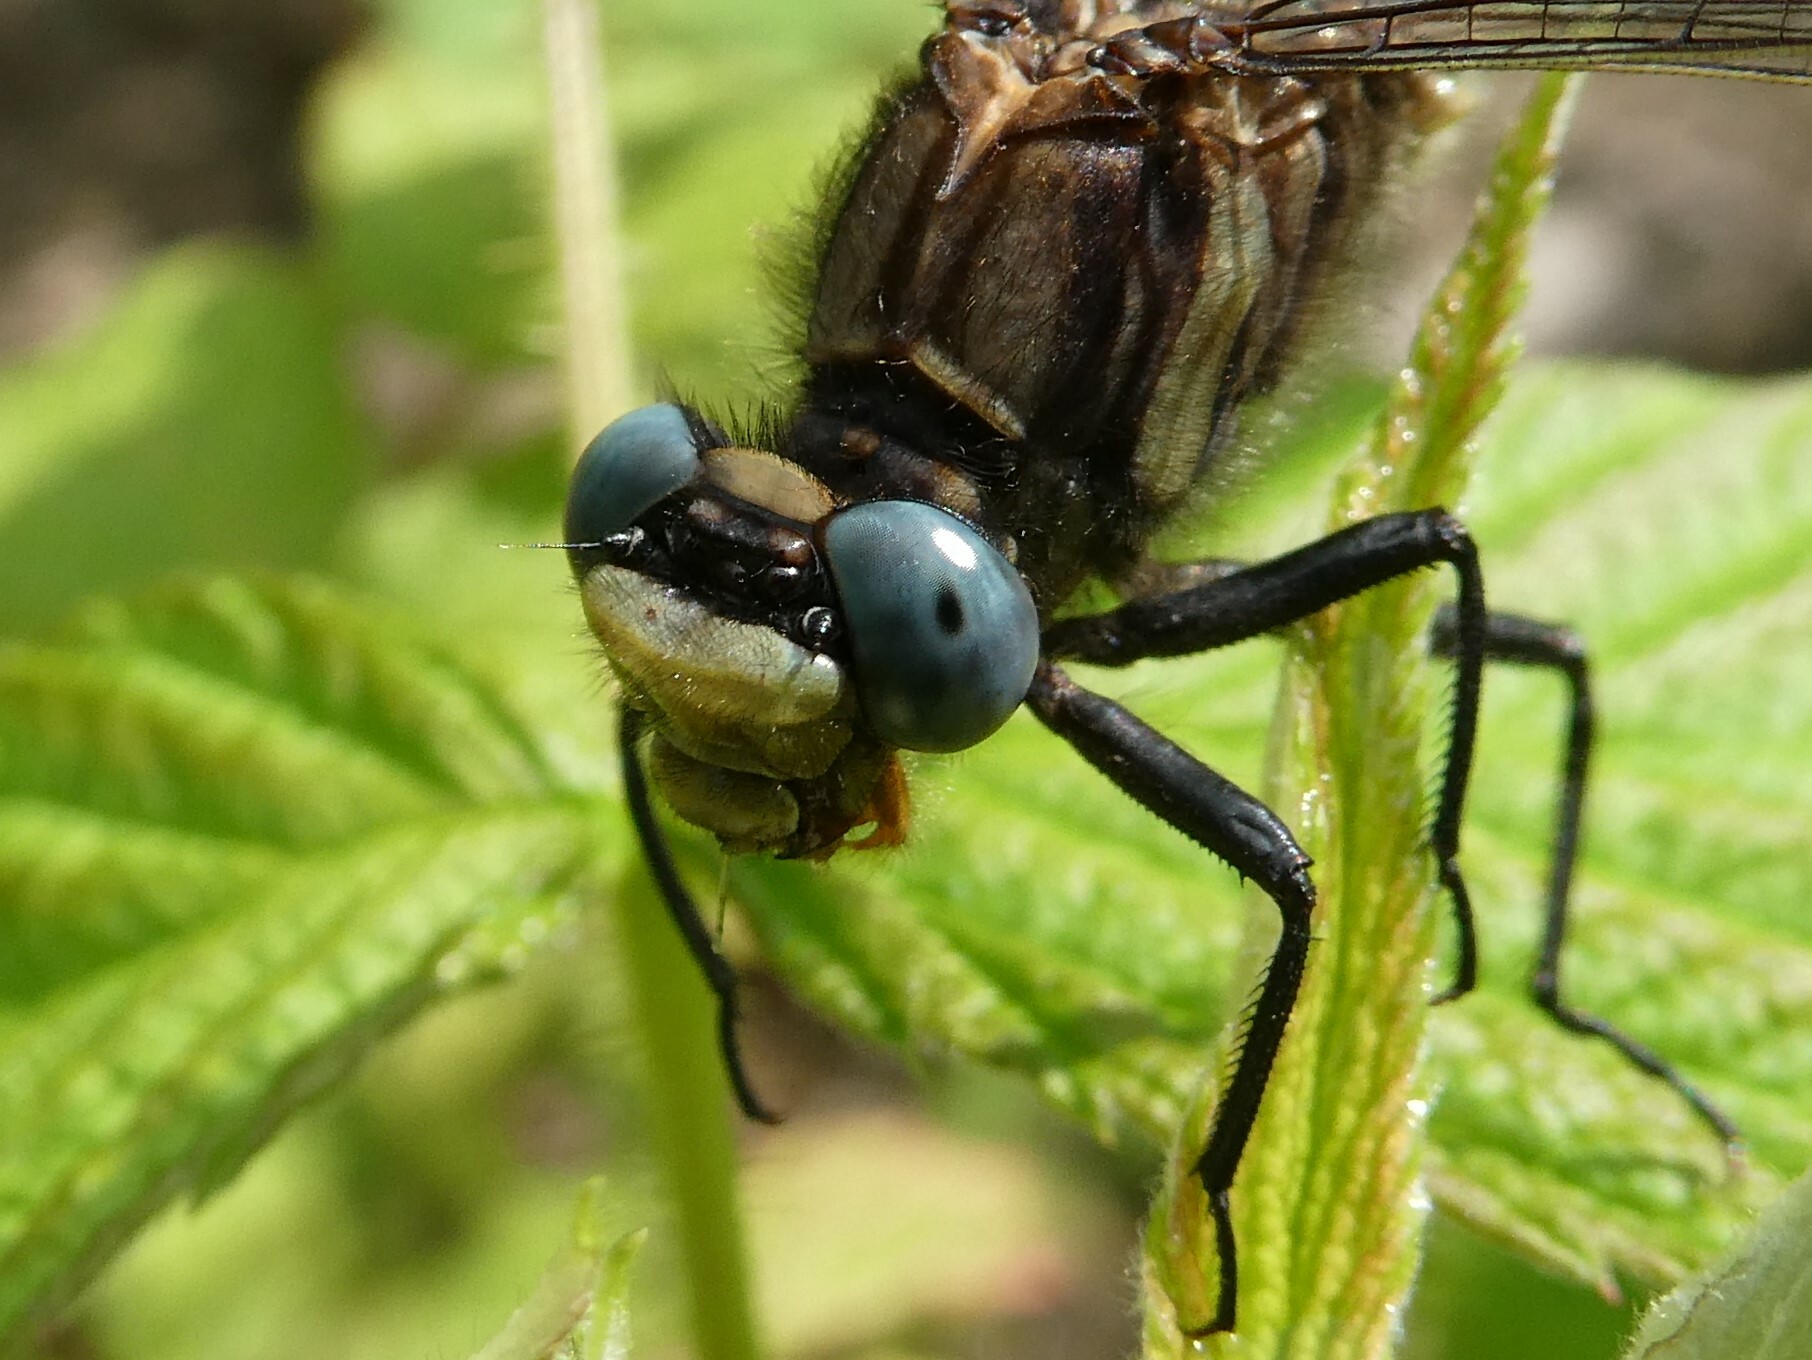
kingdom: Animalia
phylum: Arthropoda
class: Insecta
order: Odonata
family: Gomphidae
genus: Phanogomphus
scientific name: Phanogomphus borealis
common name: Beaverpond clubtail
